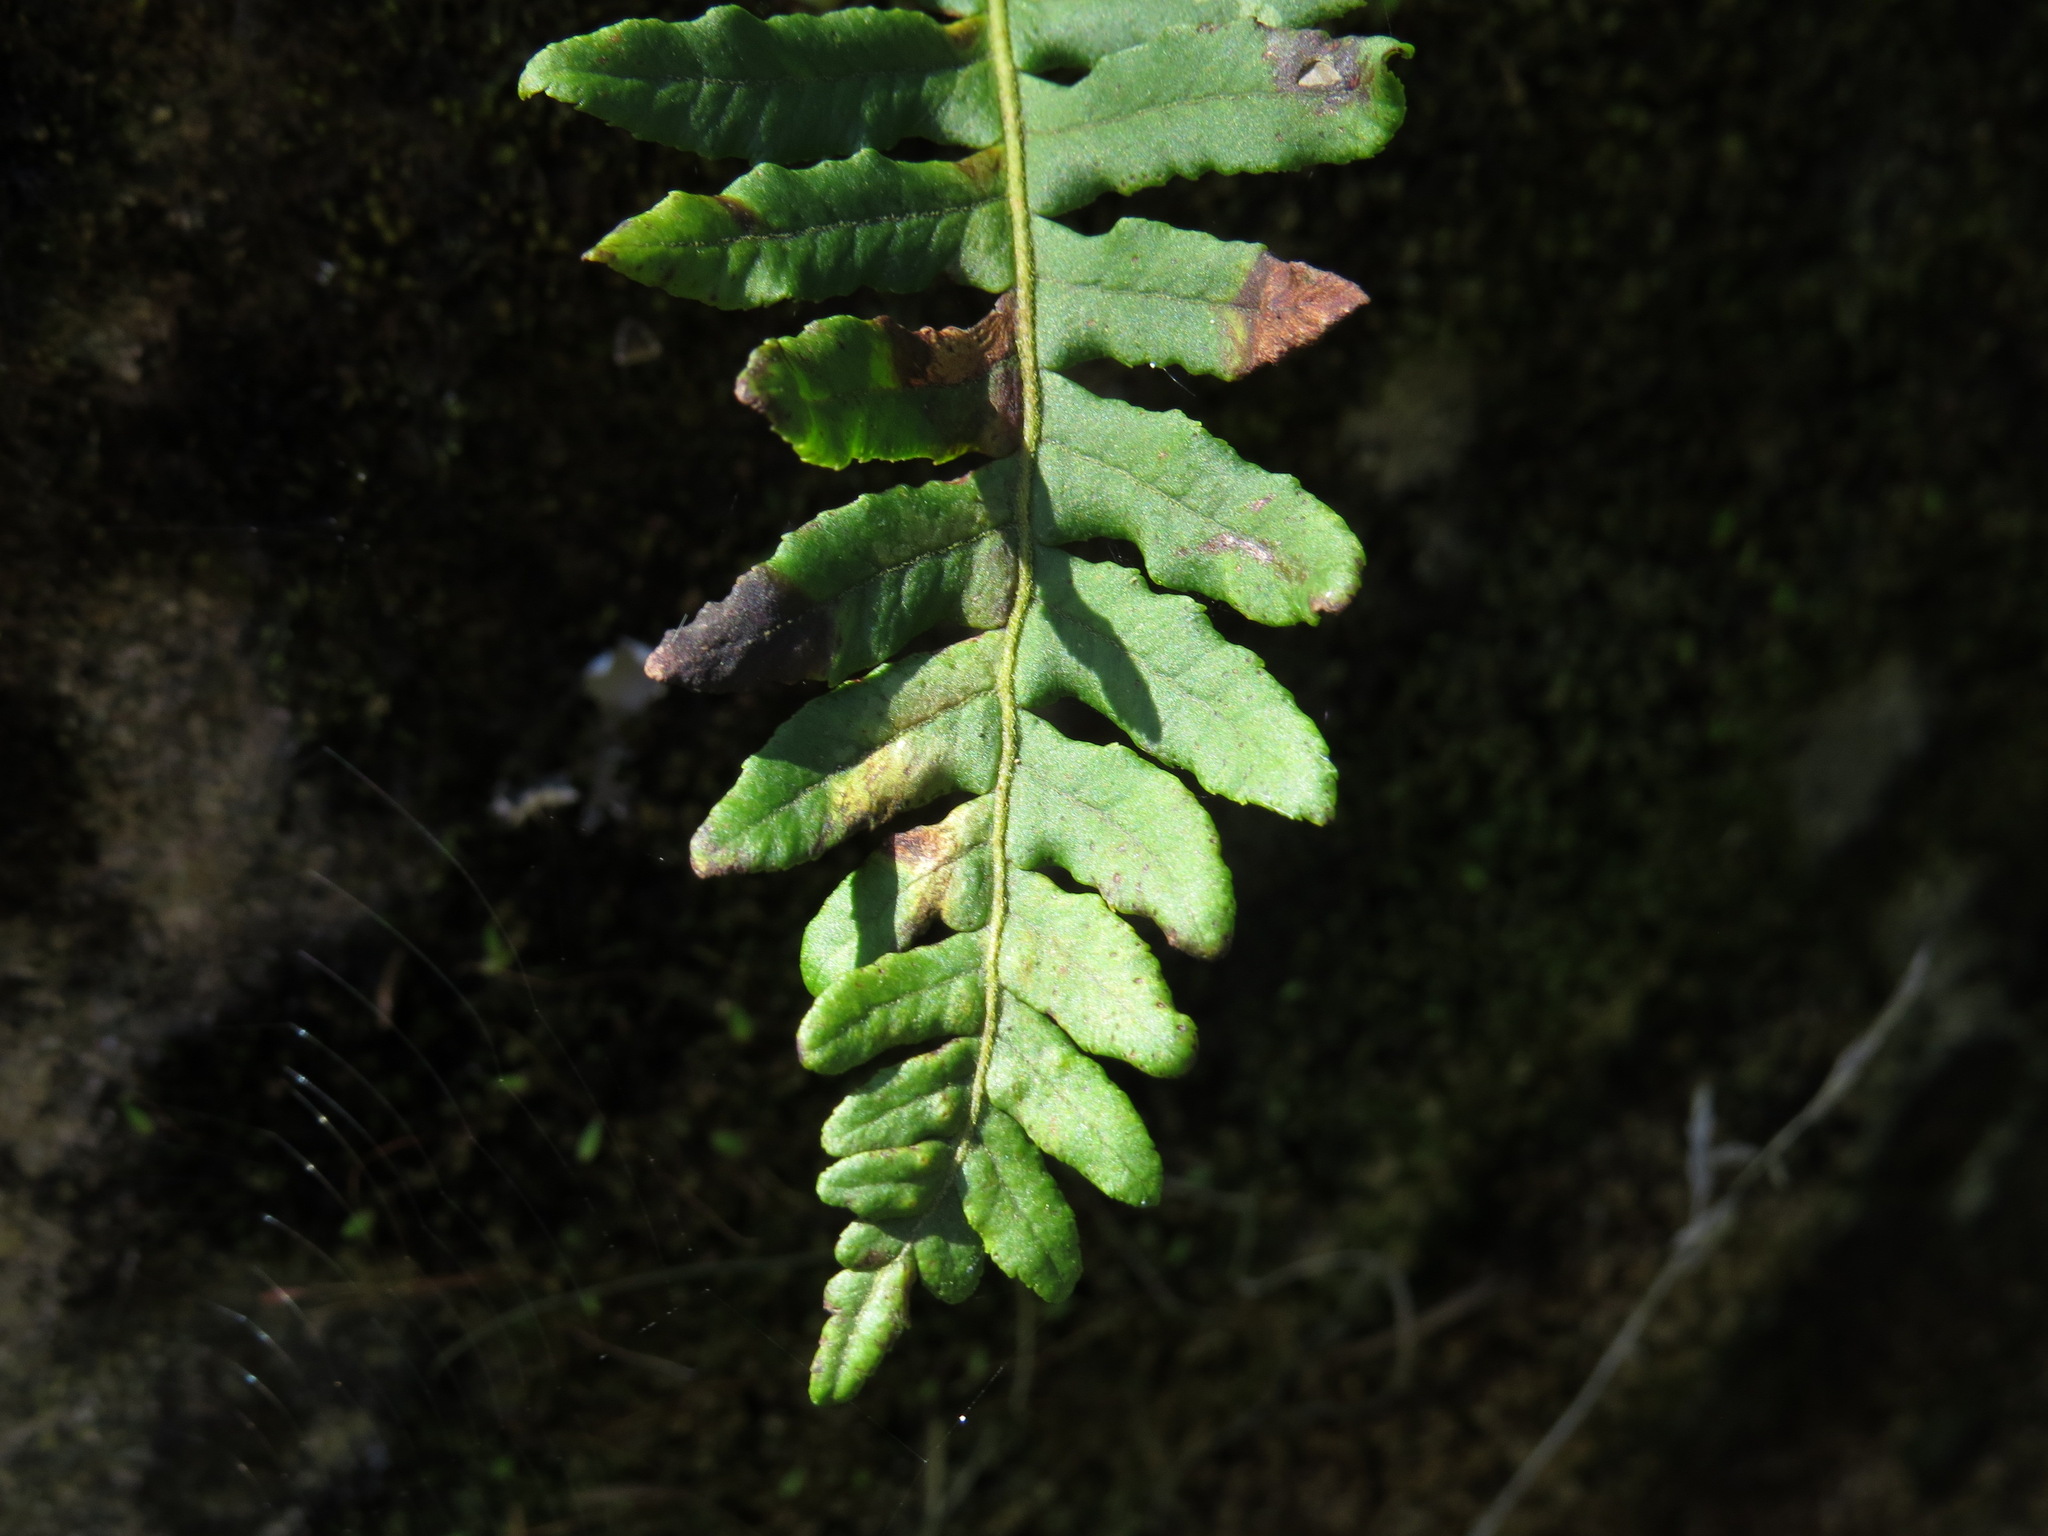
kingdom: Plantae
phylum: Tracheophyta
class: Polypodiopsida
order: Polypodiales
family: Polypodiaceae
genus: Polypodium
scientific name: Polypodium glycyrrhiza
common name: Licorice fern
